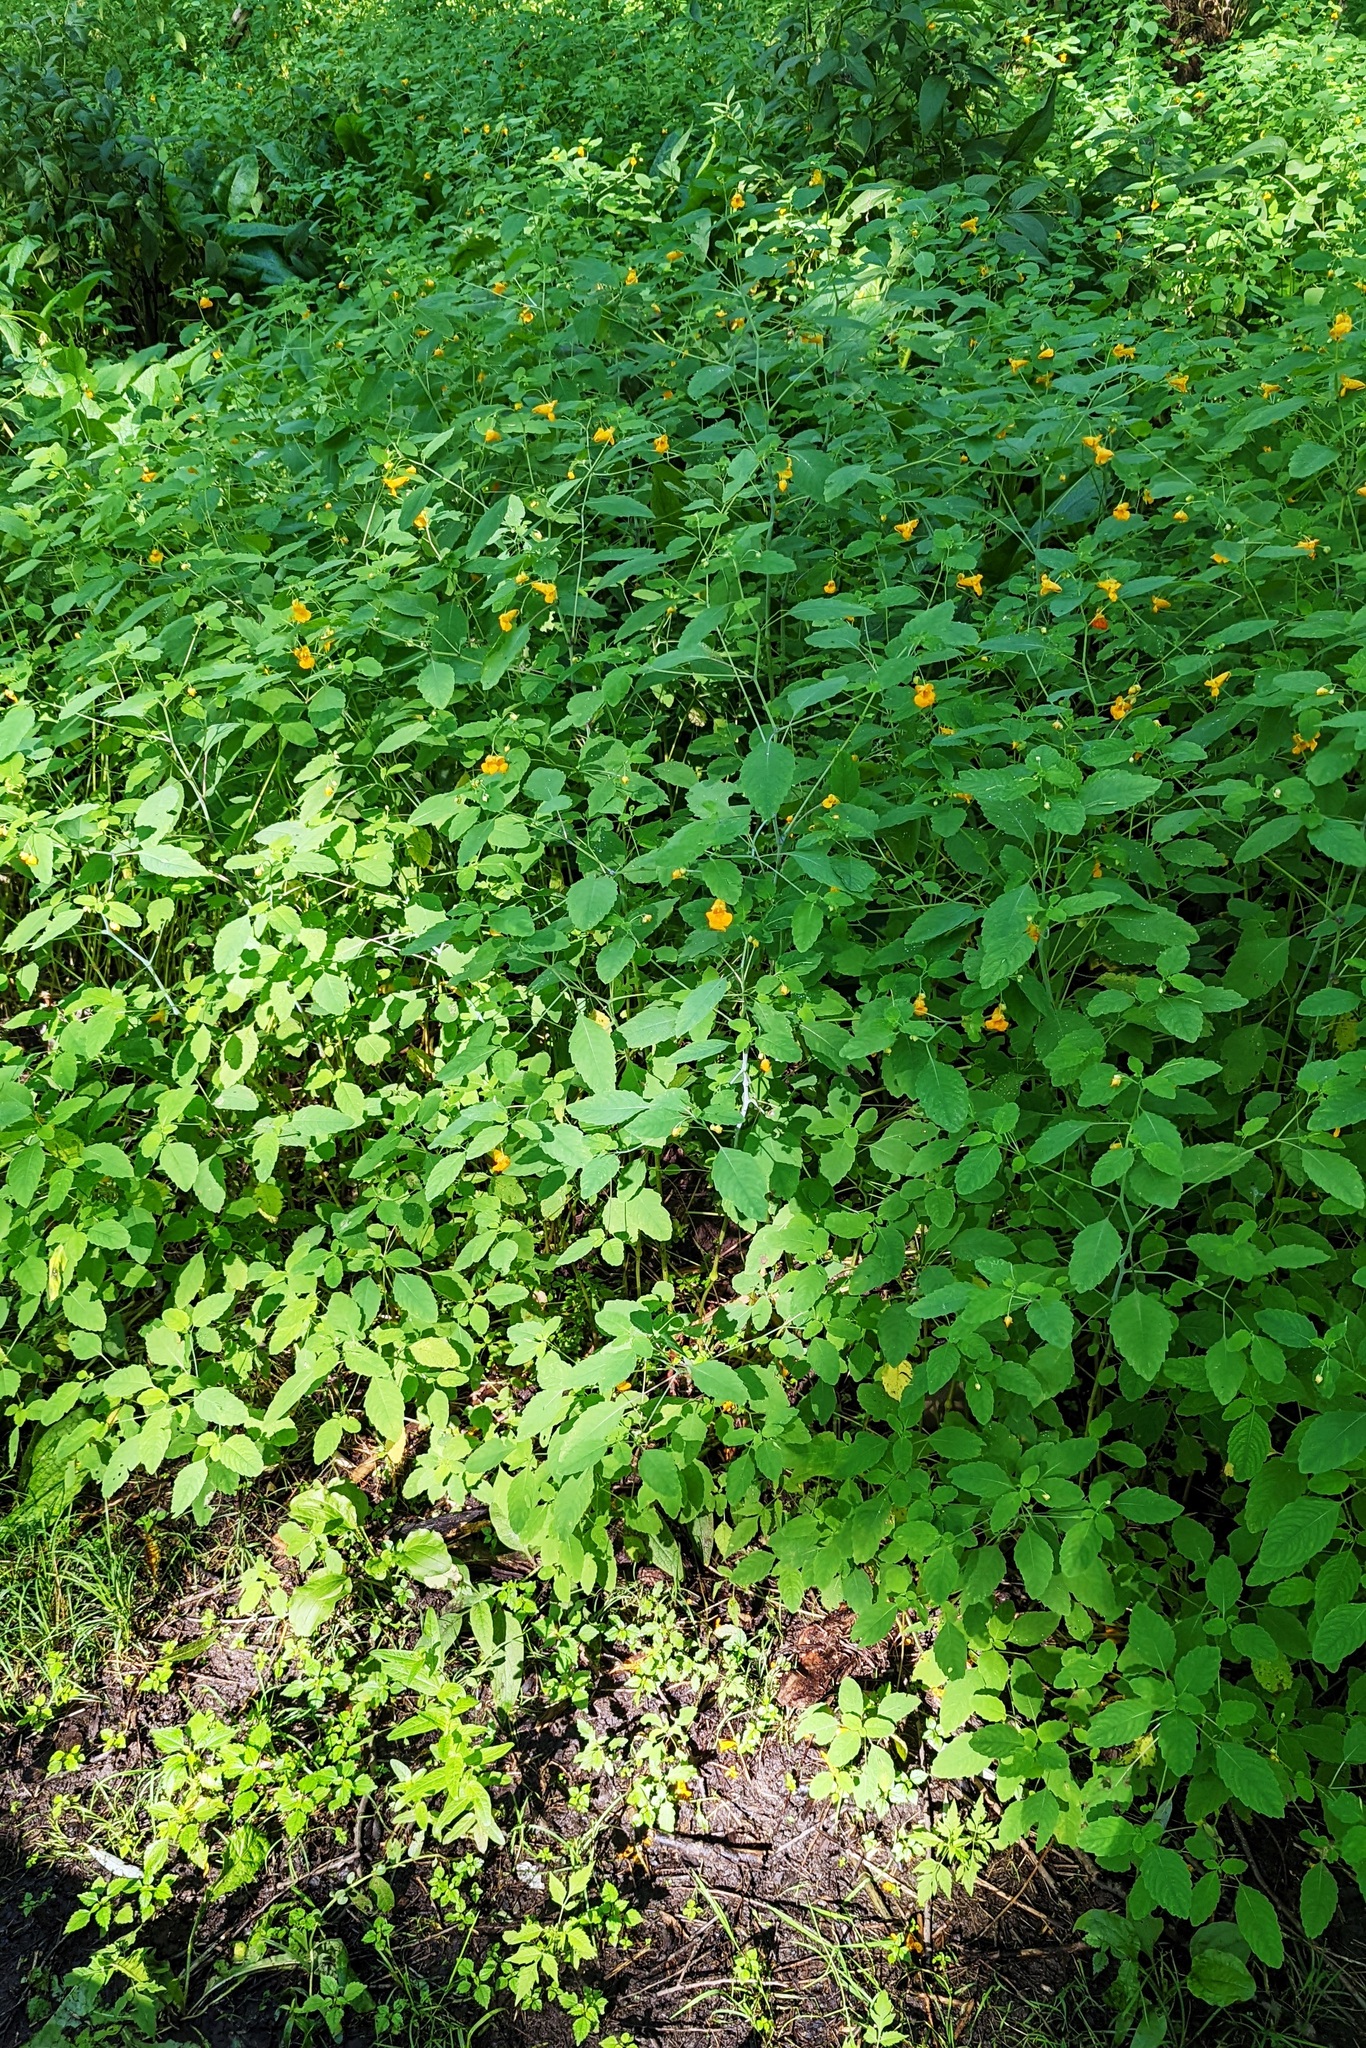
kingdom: Plantae
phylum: Tracheophyta
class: Magnoliopsida
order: Ericales
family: Balsaminaceae
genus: Impatiens
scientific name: Impatiens capensis
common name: Orange balsam
